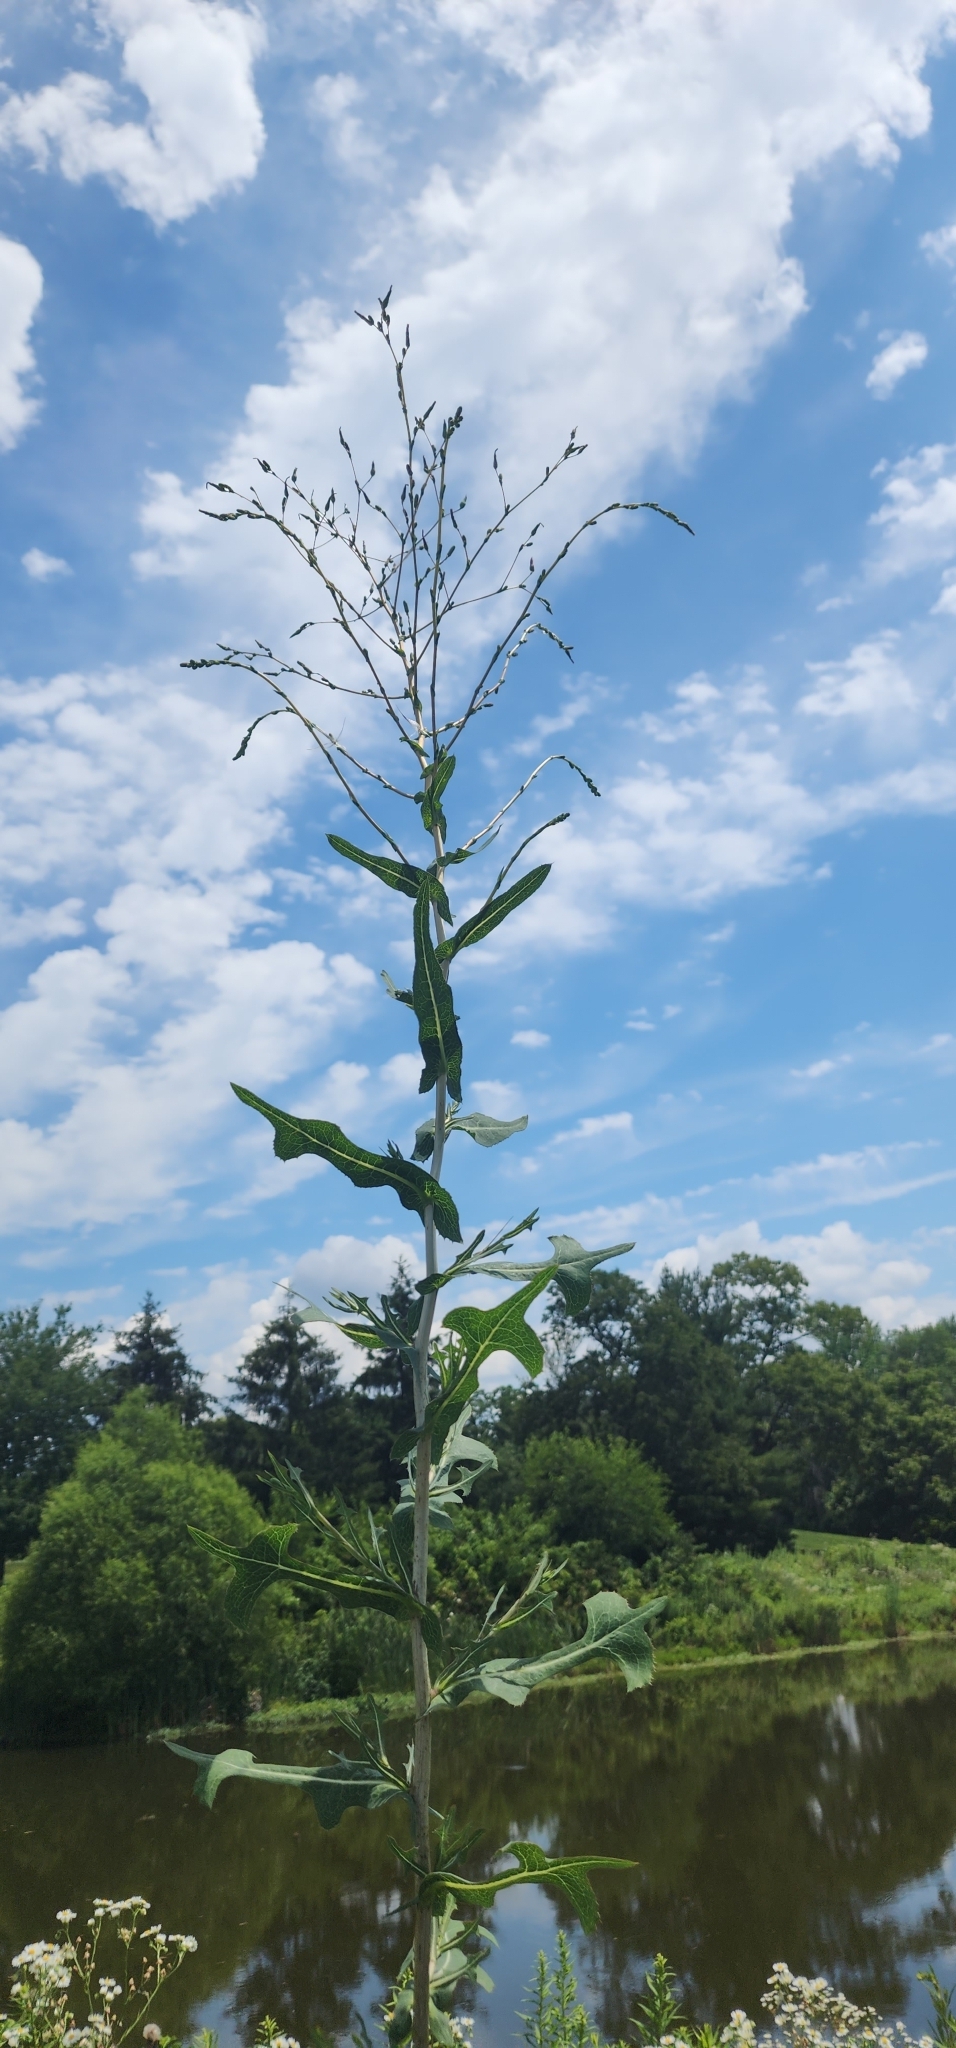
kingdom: Plantae
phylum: Tracheophyta
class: Magnoliopsida
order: Asterales
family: Asteraceae
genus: Lactuca
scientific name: Lactuca serriola
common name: Prickly lettuce
